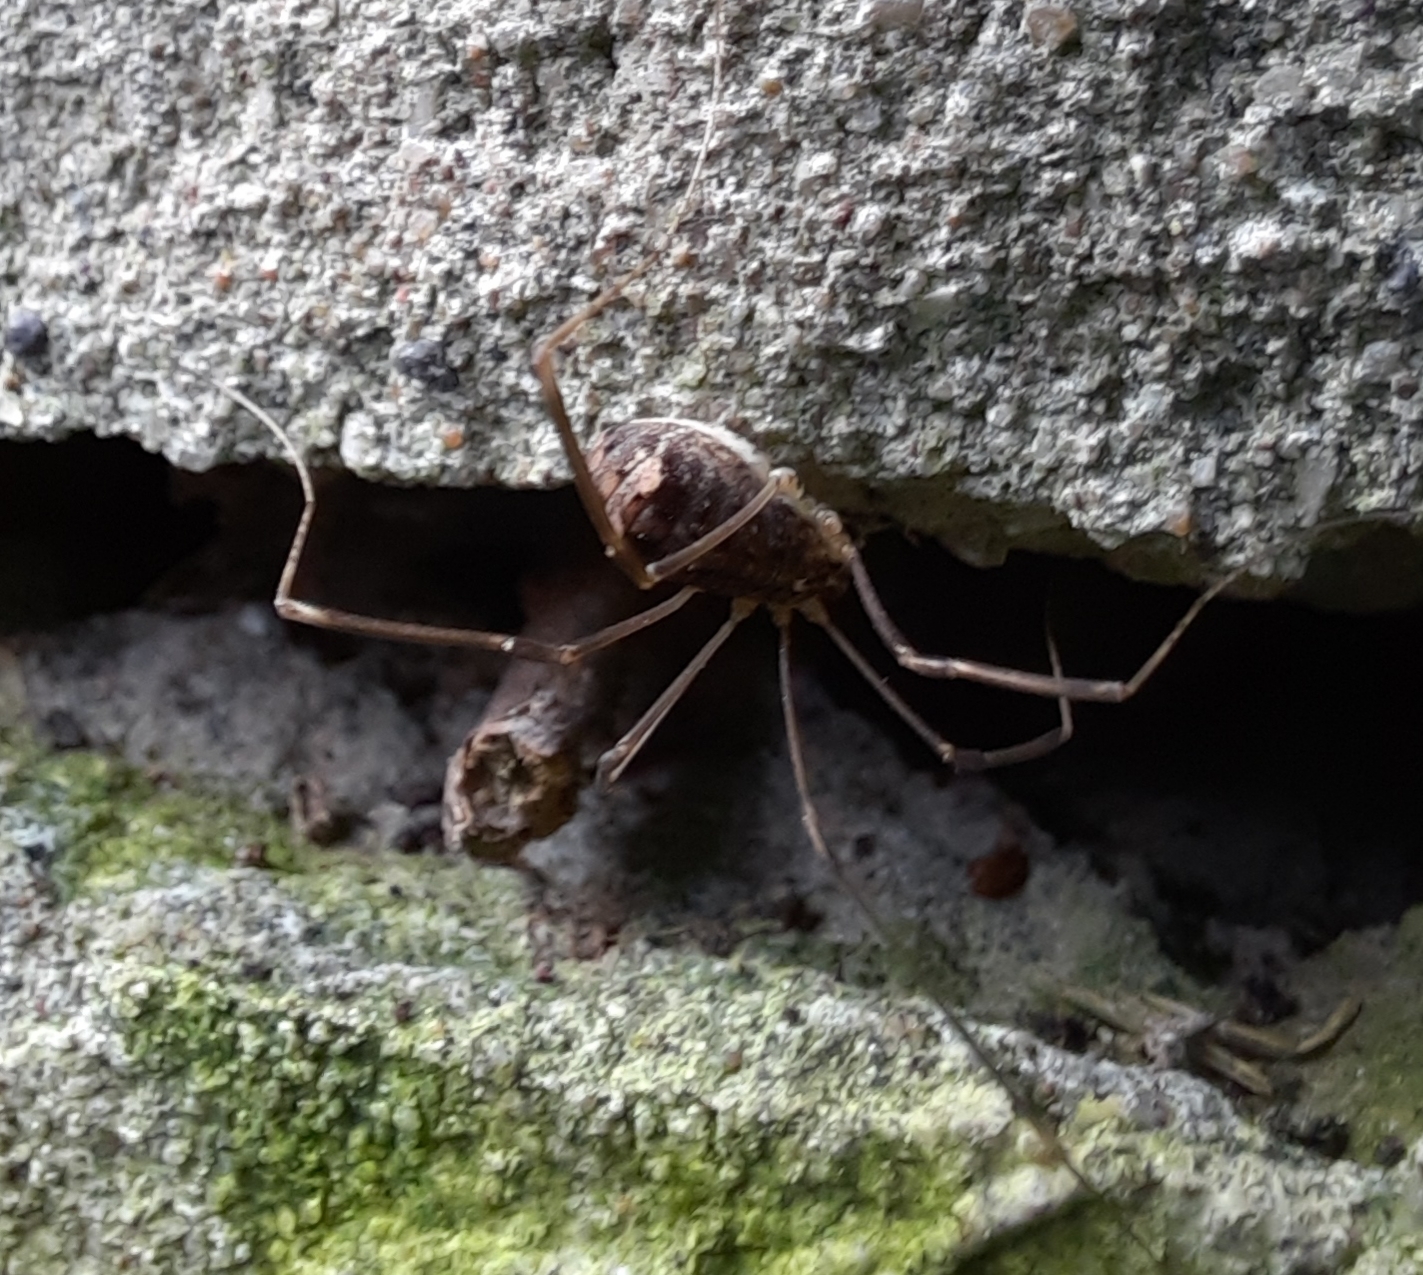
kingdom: Animalia
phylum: Arthropoda
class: Arachnida
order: Opiliones
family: Sclerosomatidae
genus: Nelima
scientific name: Nelima doriae
